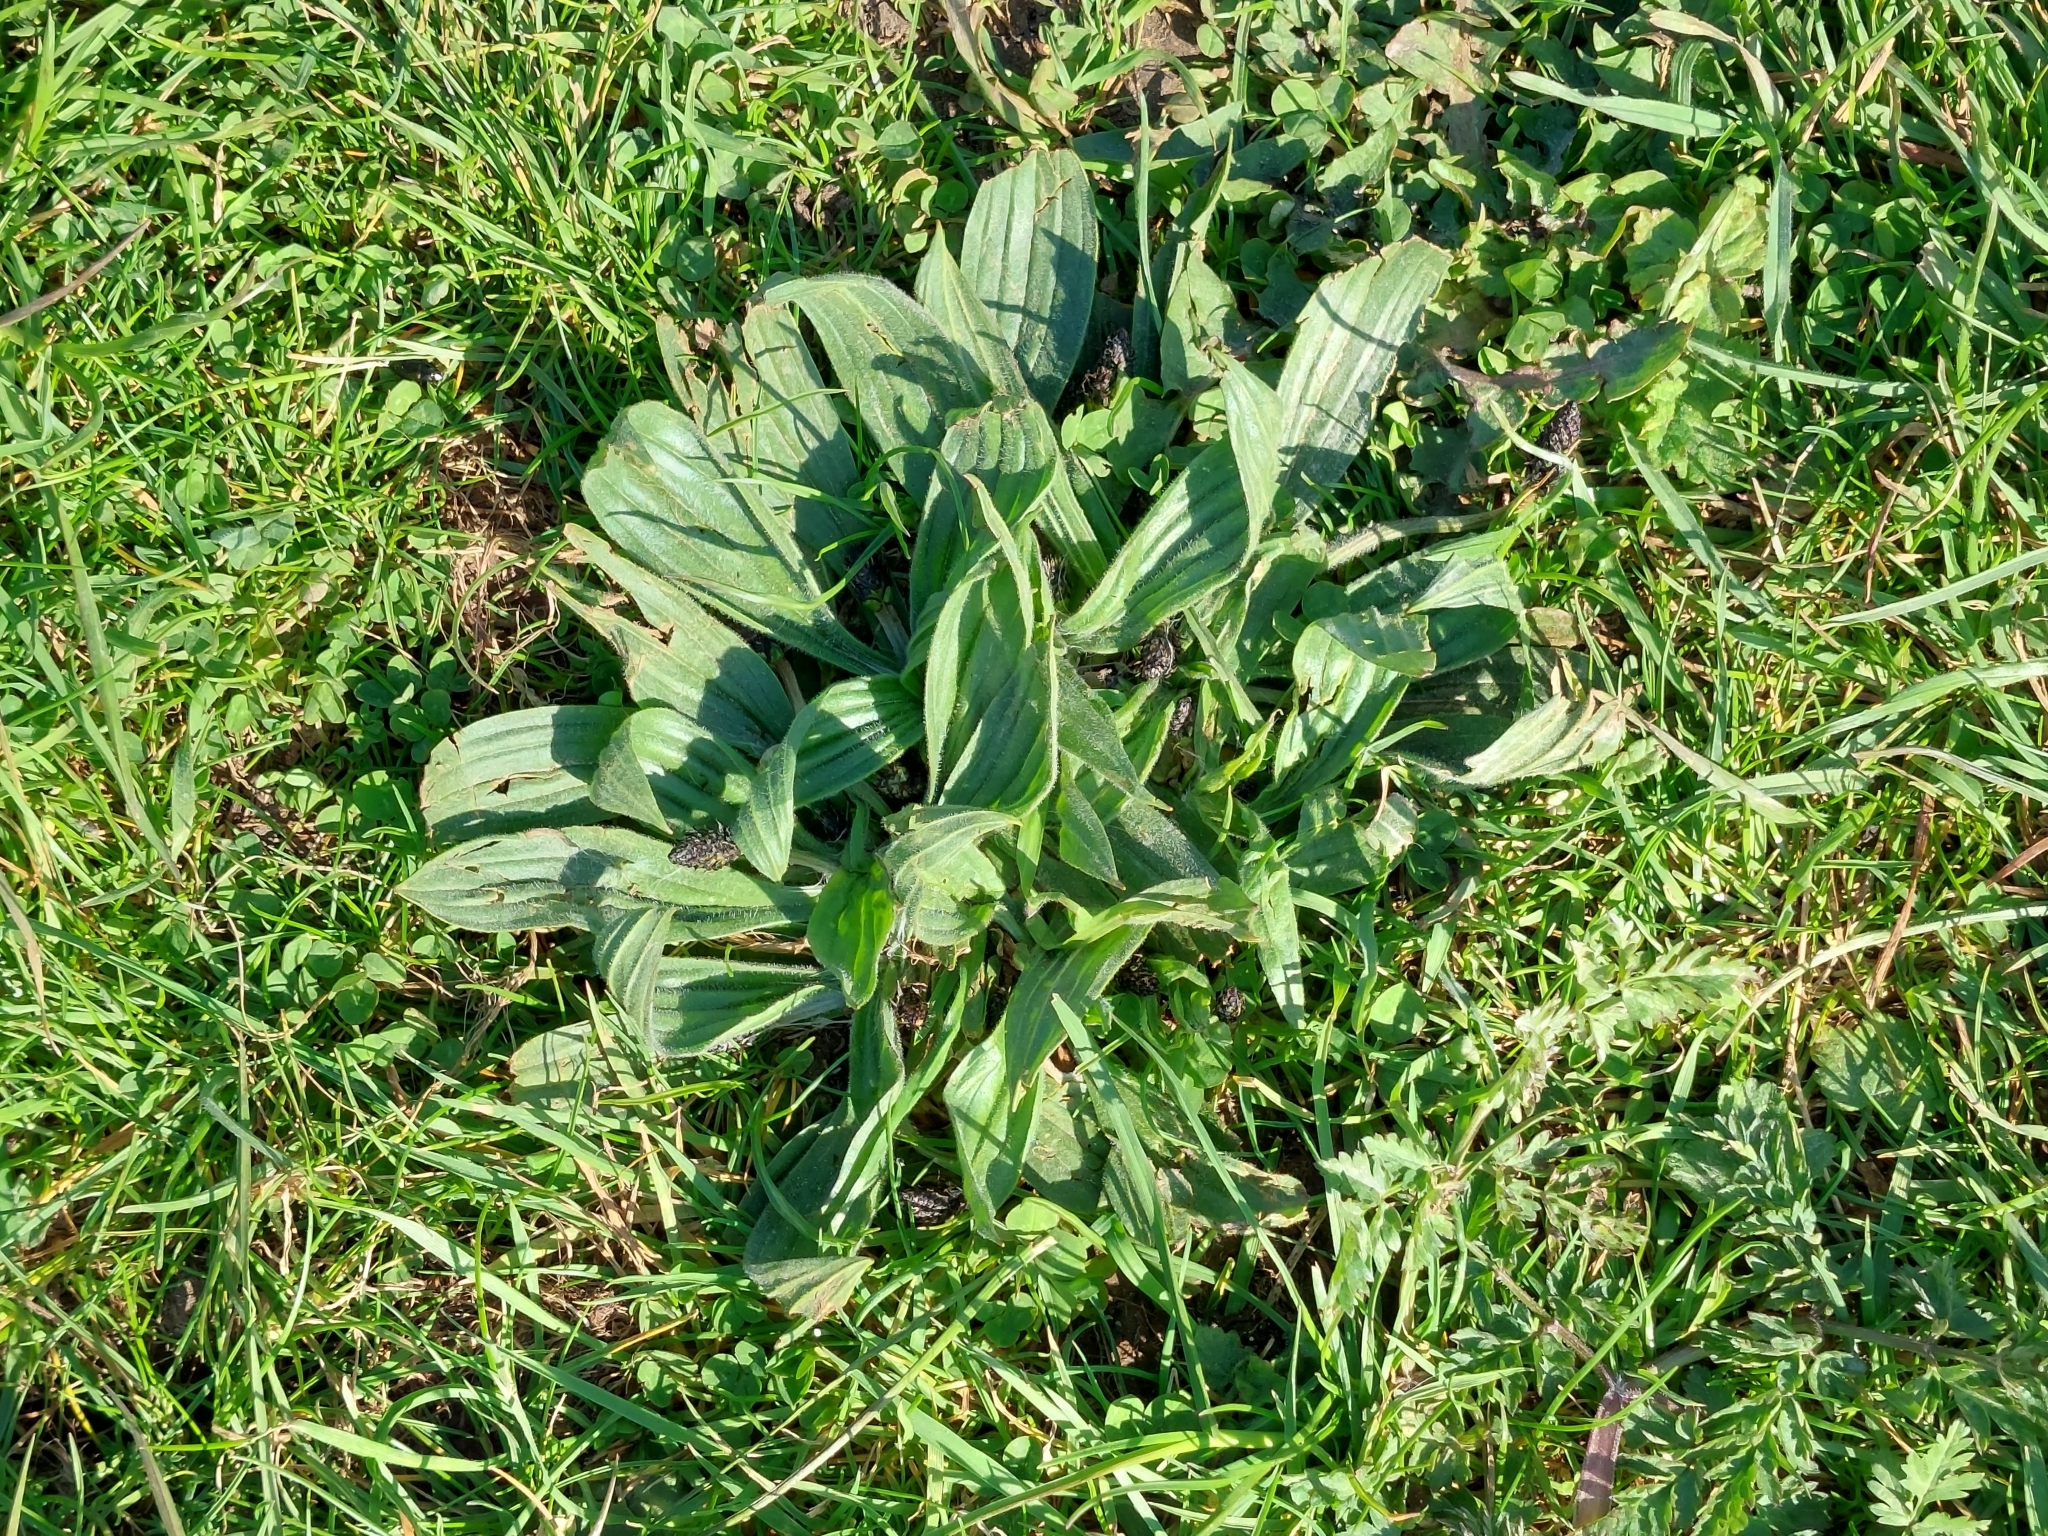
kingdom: Plantae
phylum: Tracheophyta
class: Magnoliopsida
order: Lamiales
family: Plantaginaceae
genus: Plantago
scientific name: Plantago lanceolata
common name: Ribwort plantain
